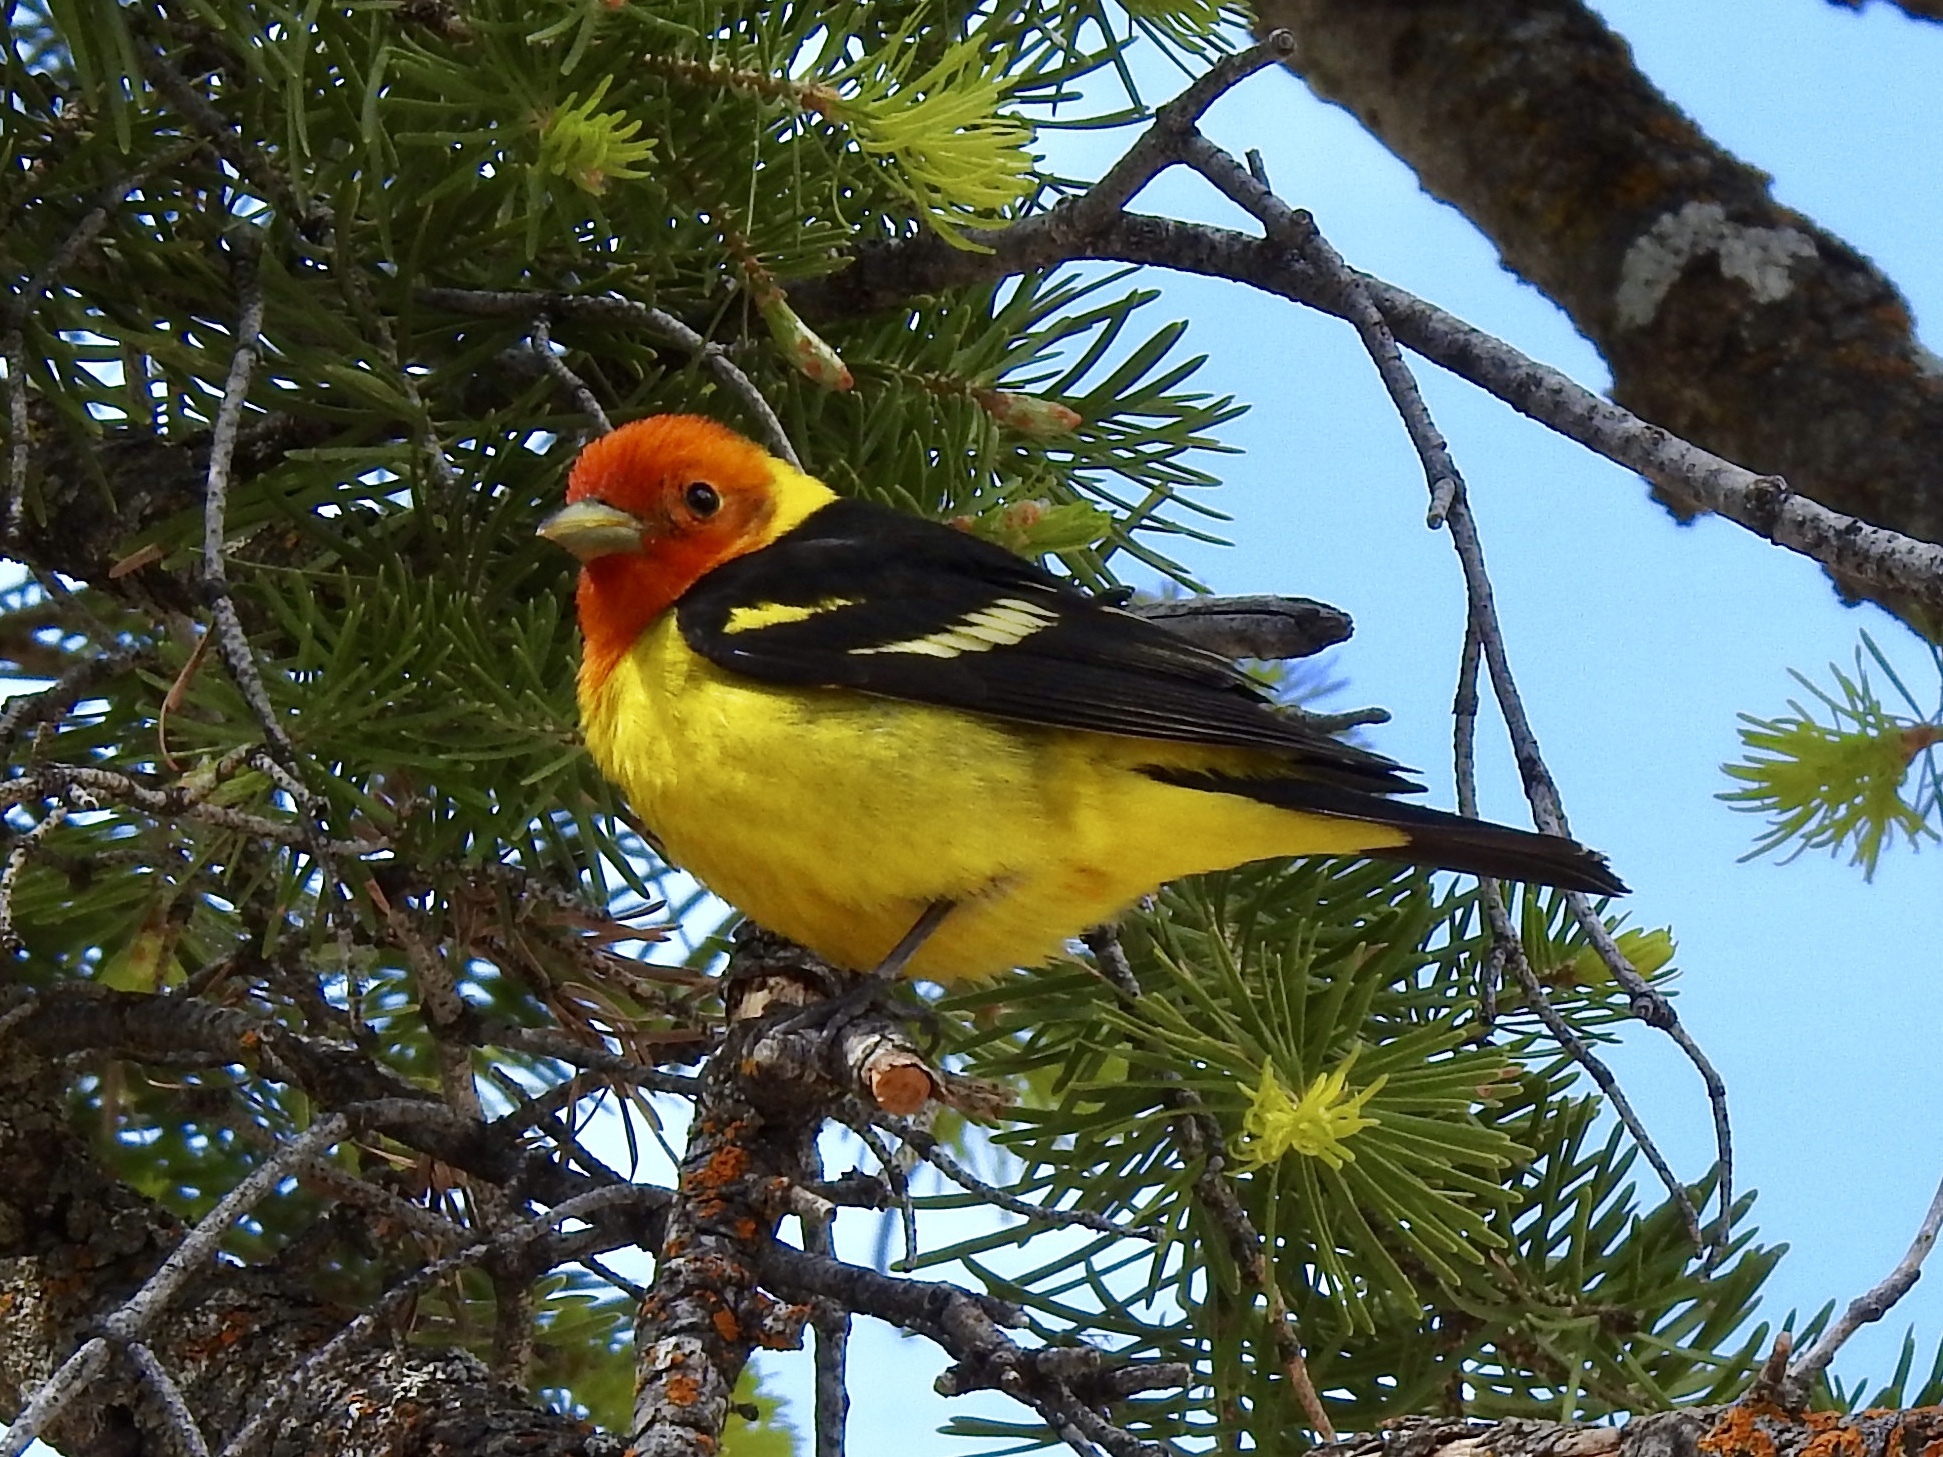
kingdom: Animalia
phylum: Chordata
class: Aves
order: Passeriformes
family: Cardinalidae
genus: Piranga
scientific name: Piranga ludoviciana
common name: Western tanager
